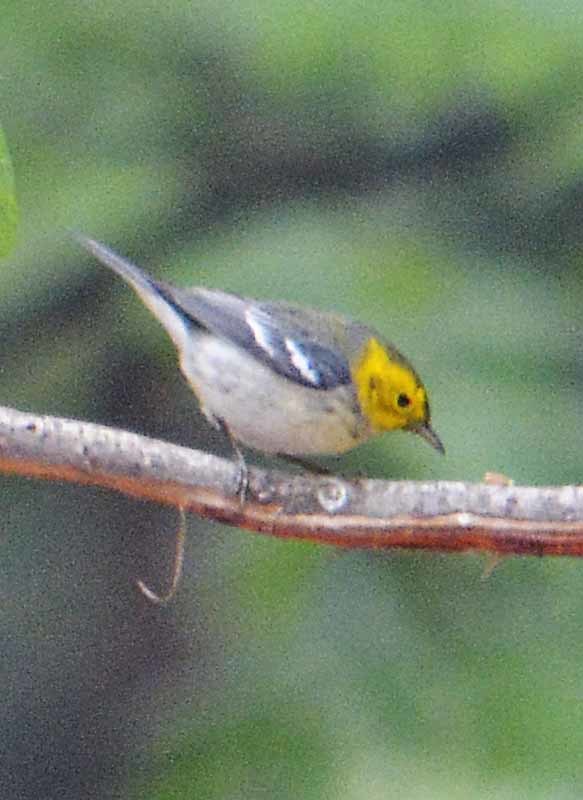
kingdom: Animalia
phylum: Chordata
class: Aves
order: Passeriformes
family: Parulidae
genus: Setophaga
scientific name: Setophaga occidentalis
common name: Hermit warbler
